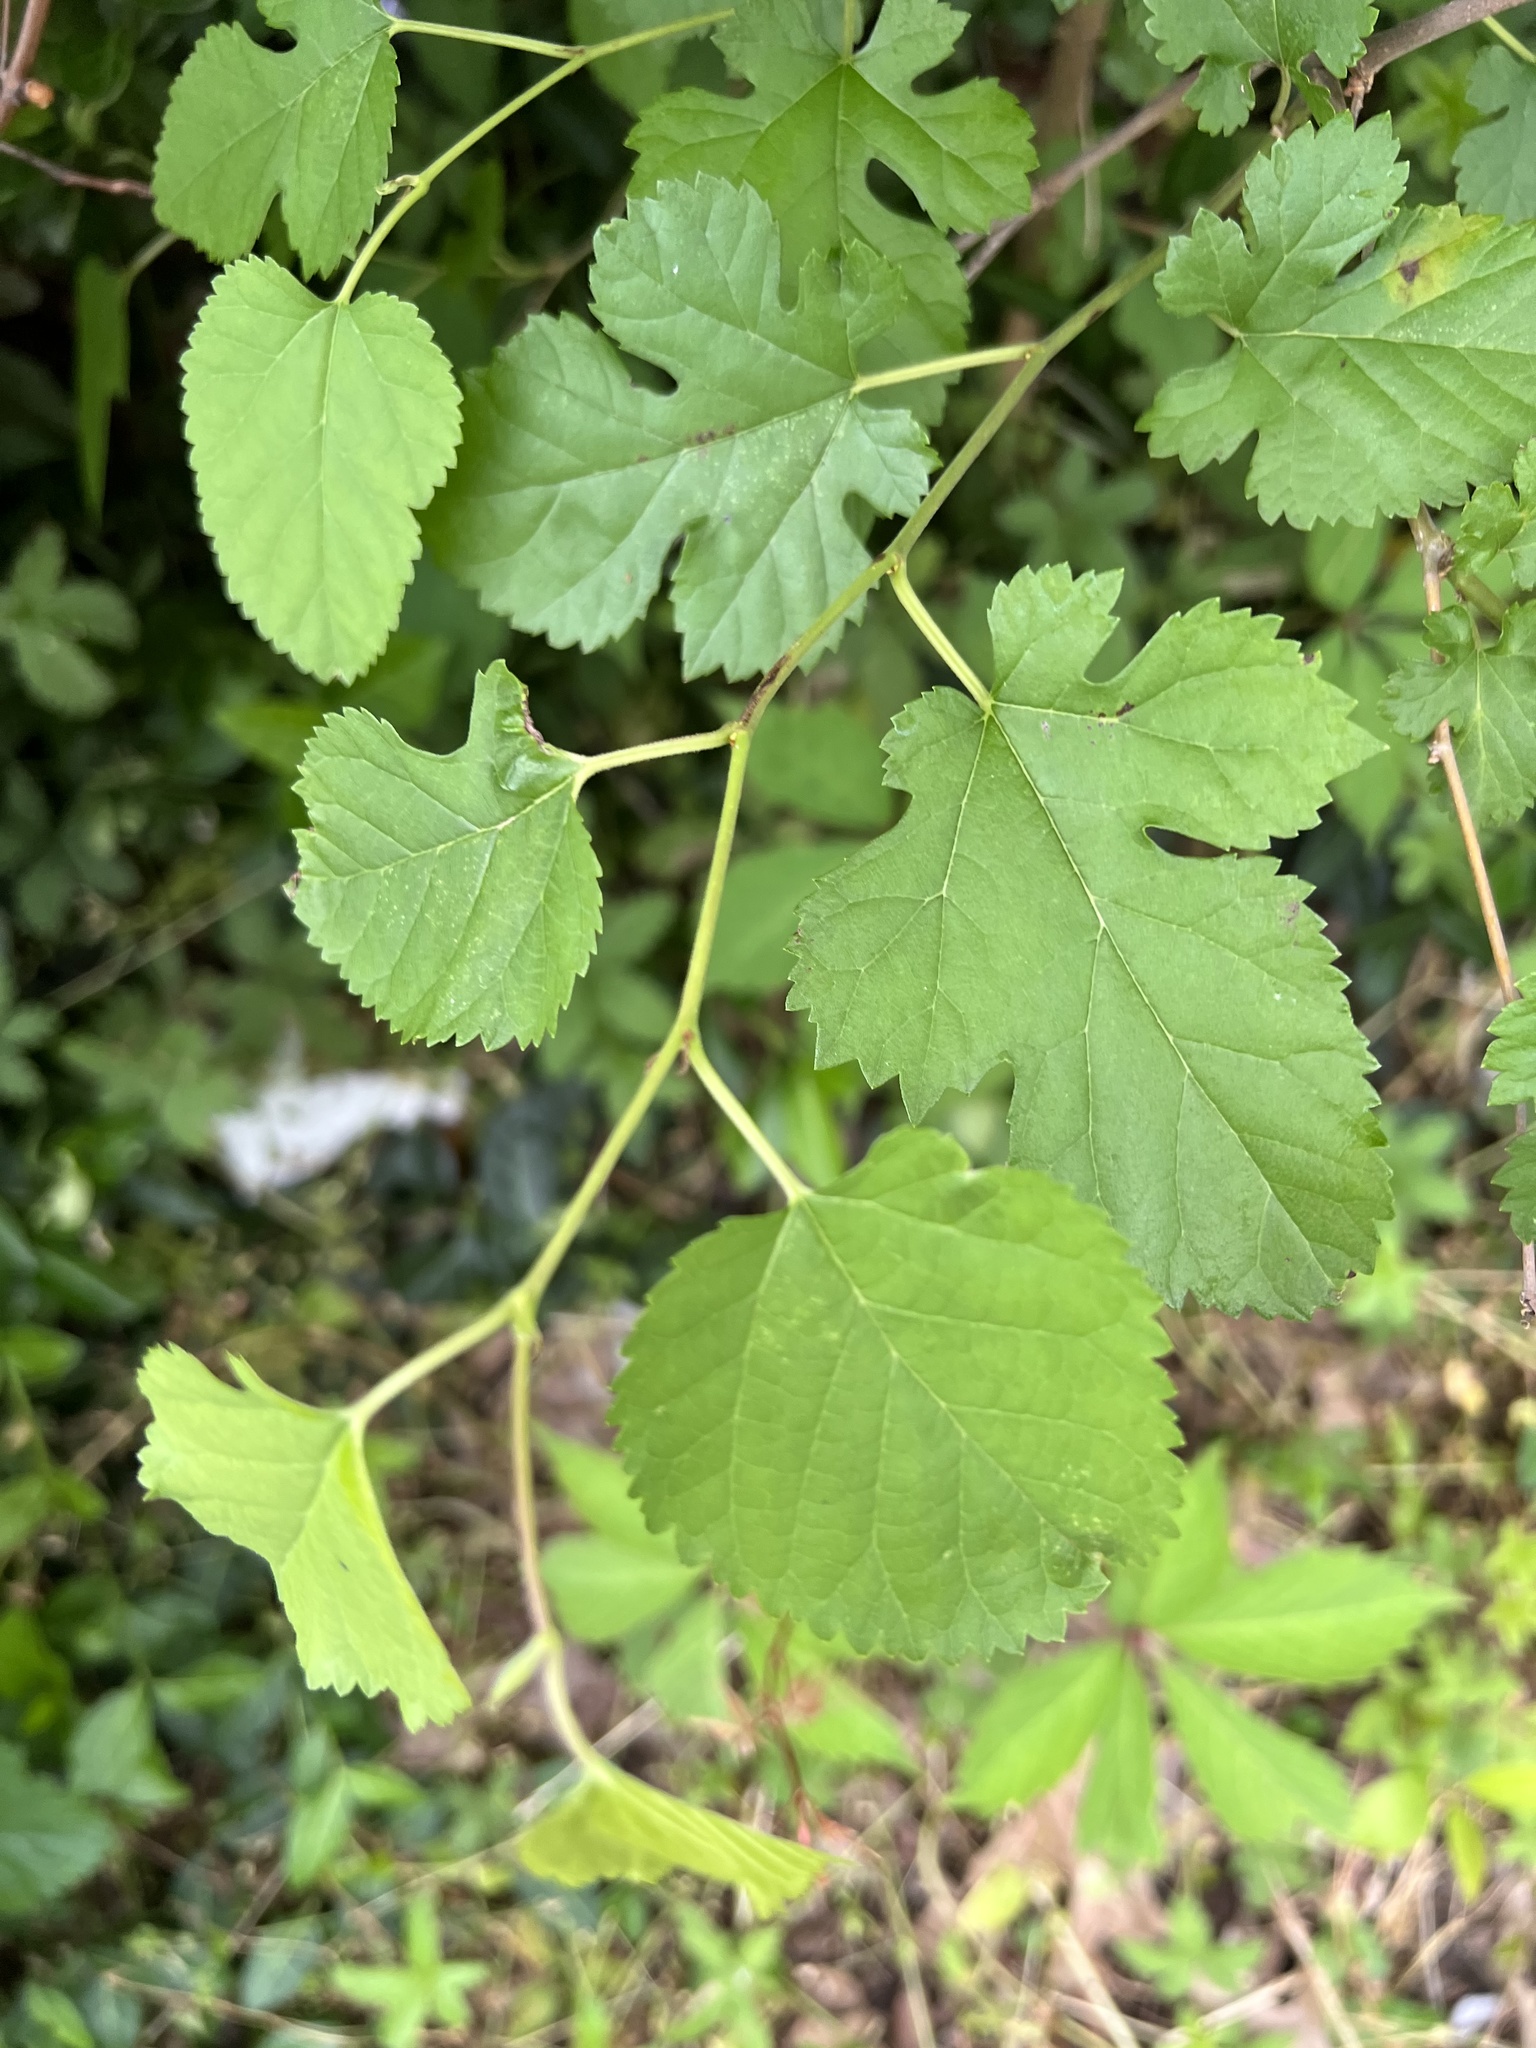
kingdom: Plantae
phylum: Tracheophyta
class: Magnoliopsida
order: Rosales
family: Moraceae
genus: Morus
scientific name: Morus alba
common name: White mulberry
